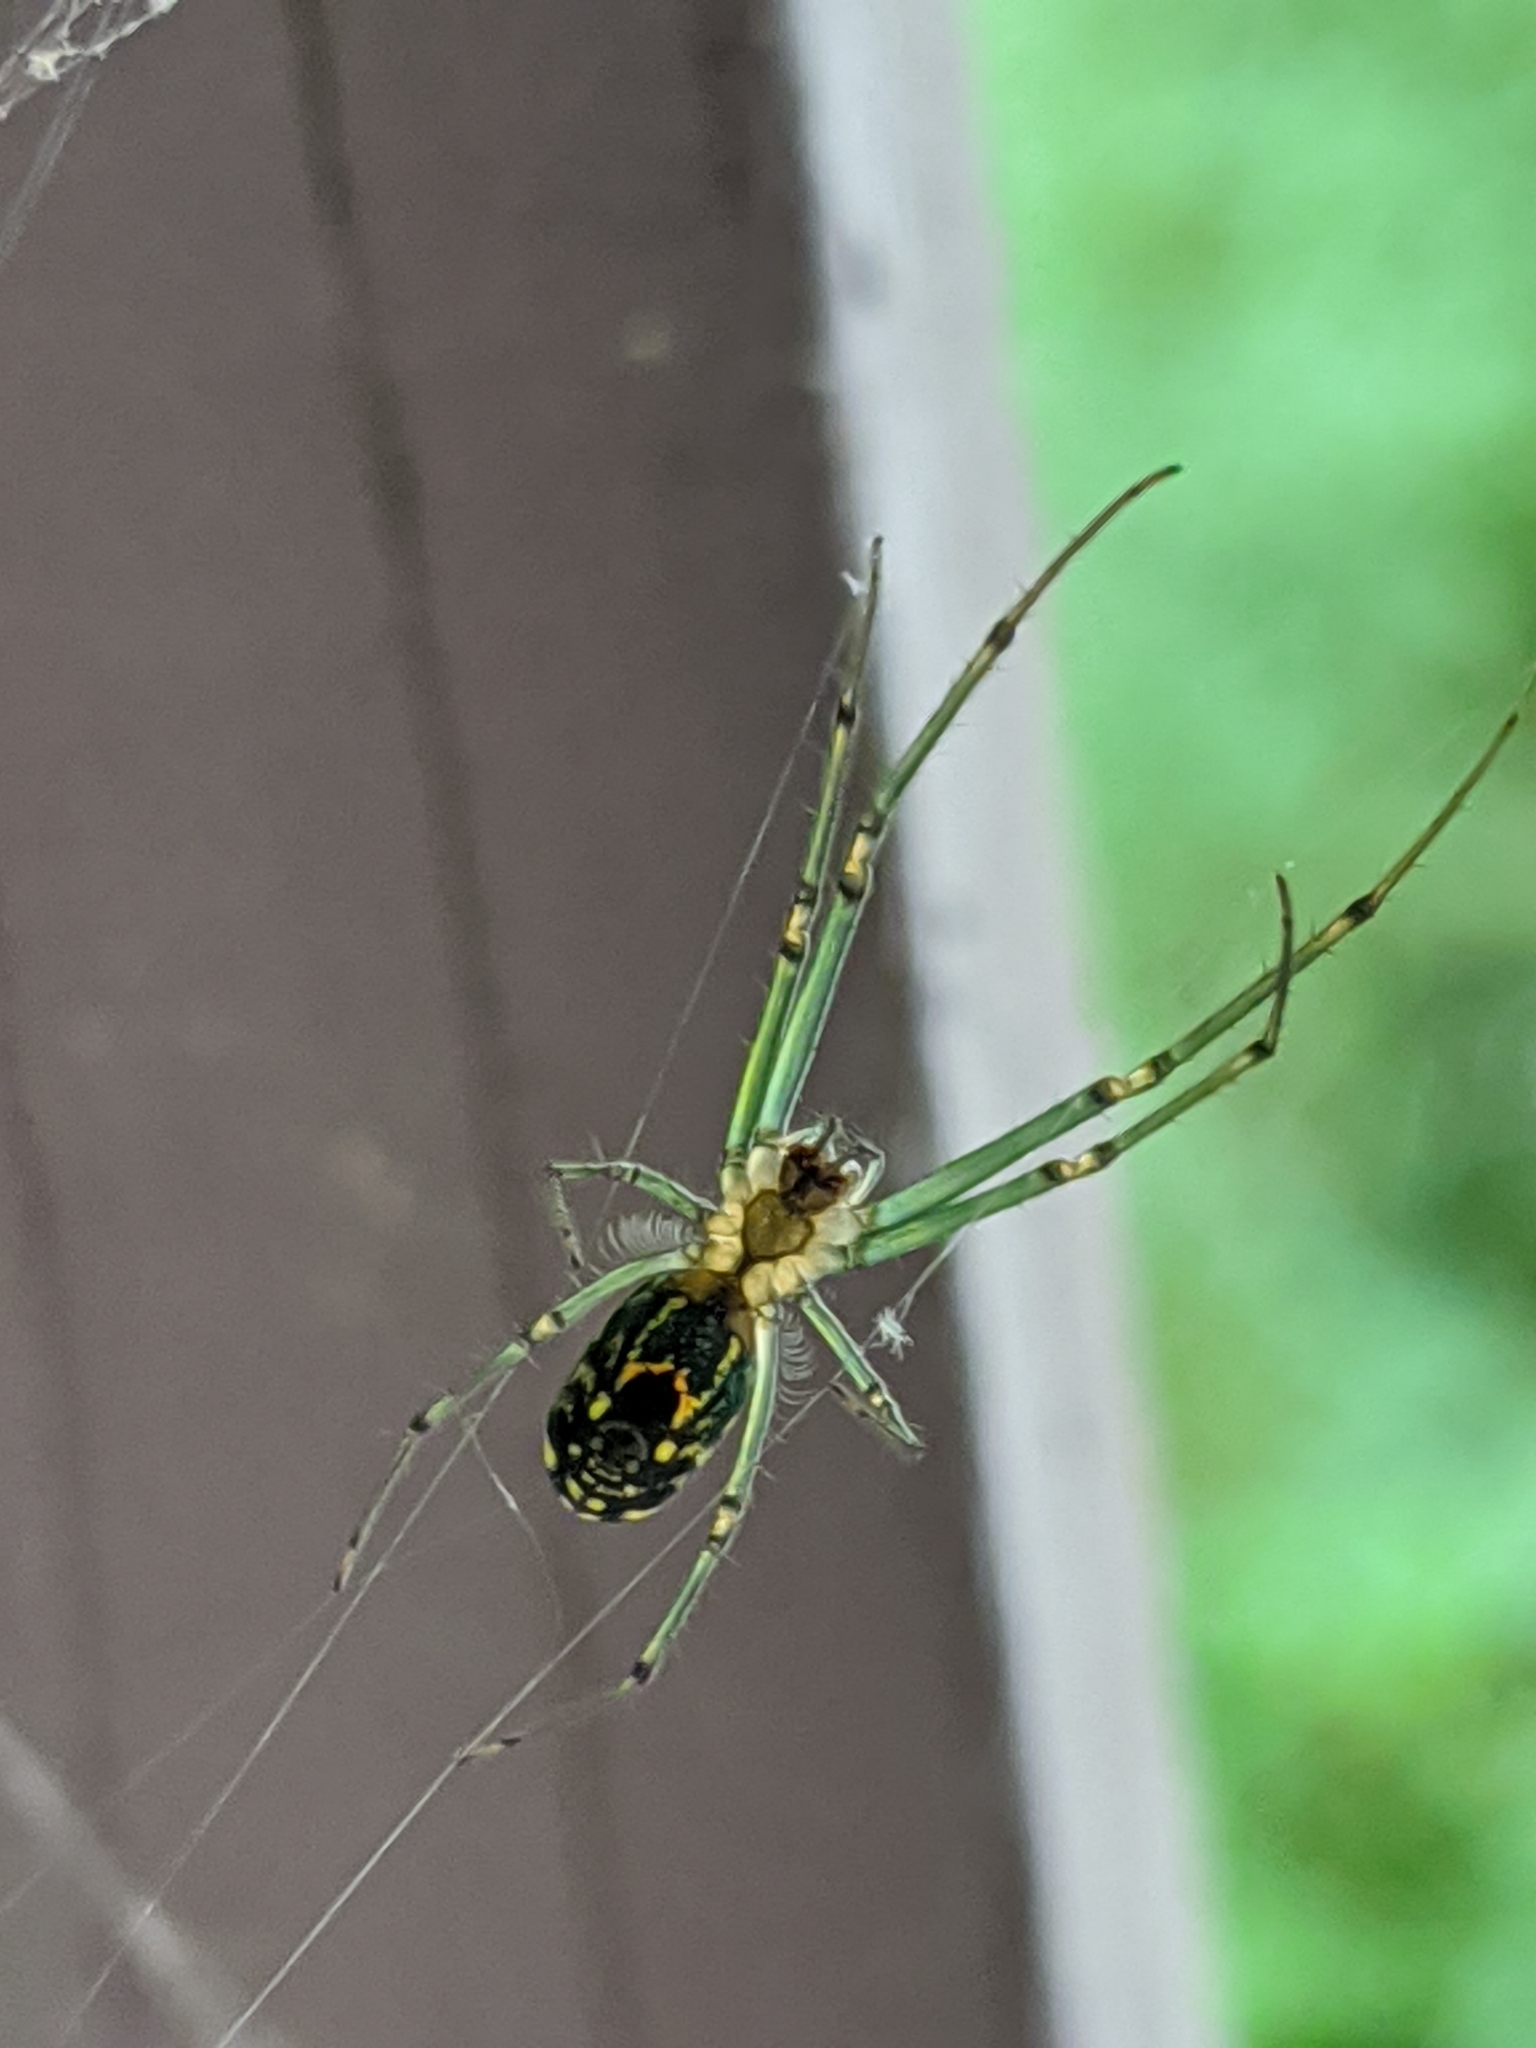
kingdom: Animalia
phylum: Arthropoda
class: Arachnida
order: Araneae
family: Tetragnathidae
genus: Leucauge
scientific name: Leucauge venusta
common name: Longjawed orb weavers
